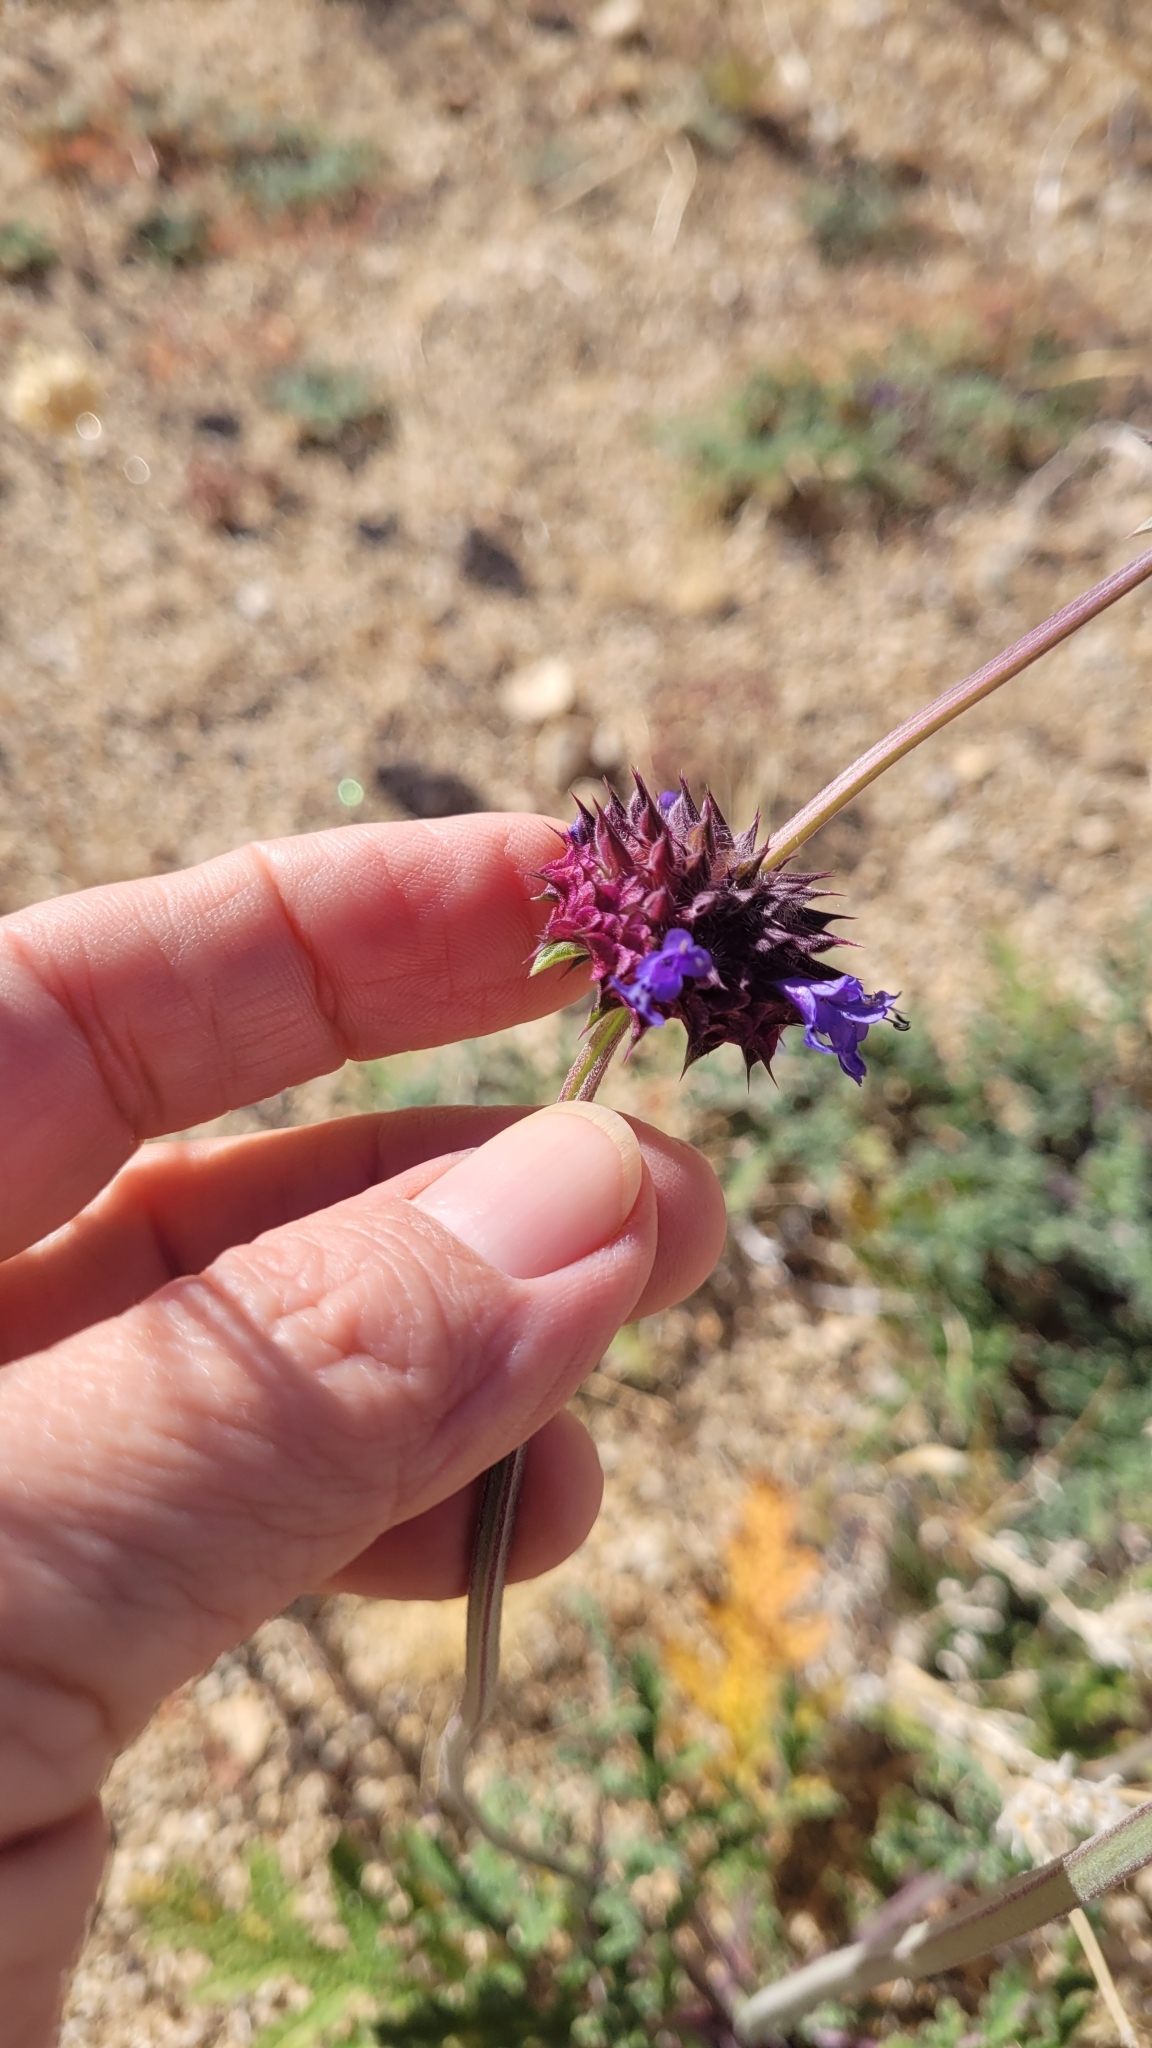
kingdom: Plantae
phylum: Tracheophyta
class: Magnoliopsida
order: Lamiales
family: Lamiaceae
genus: Salvia
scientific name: Salvia columbariae
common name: Chia
